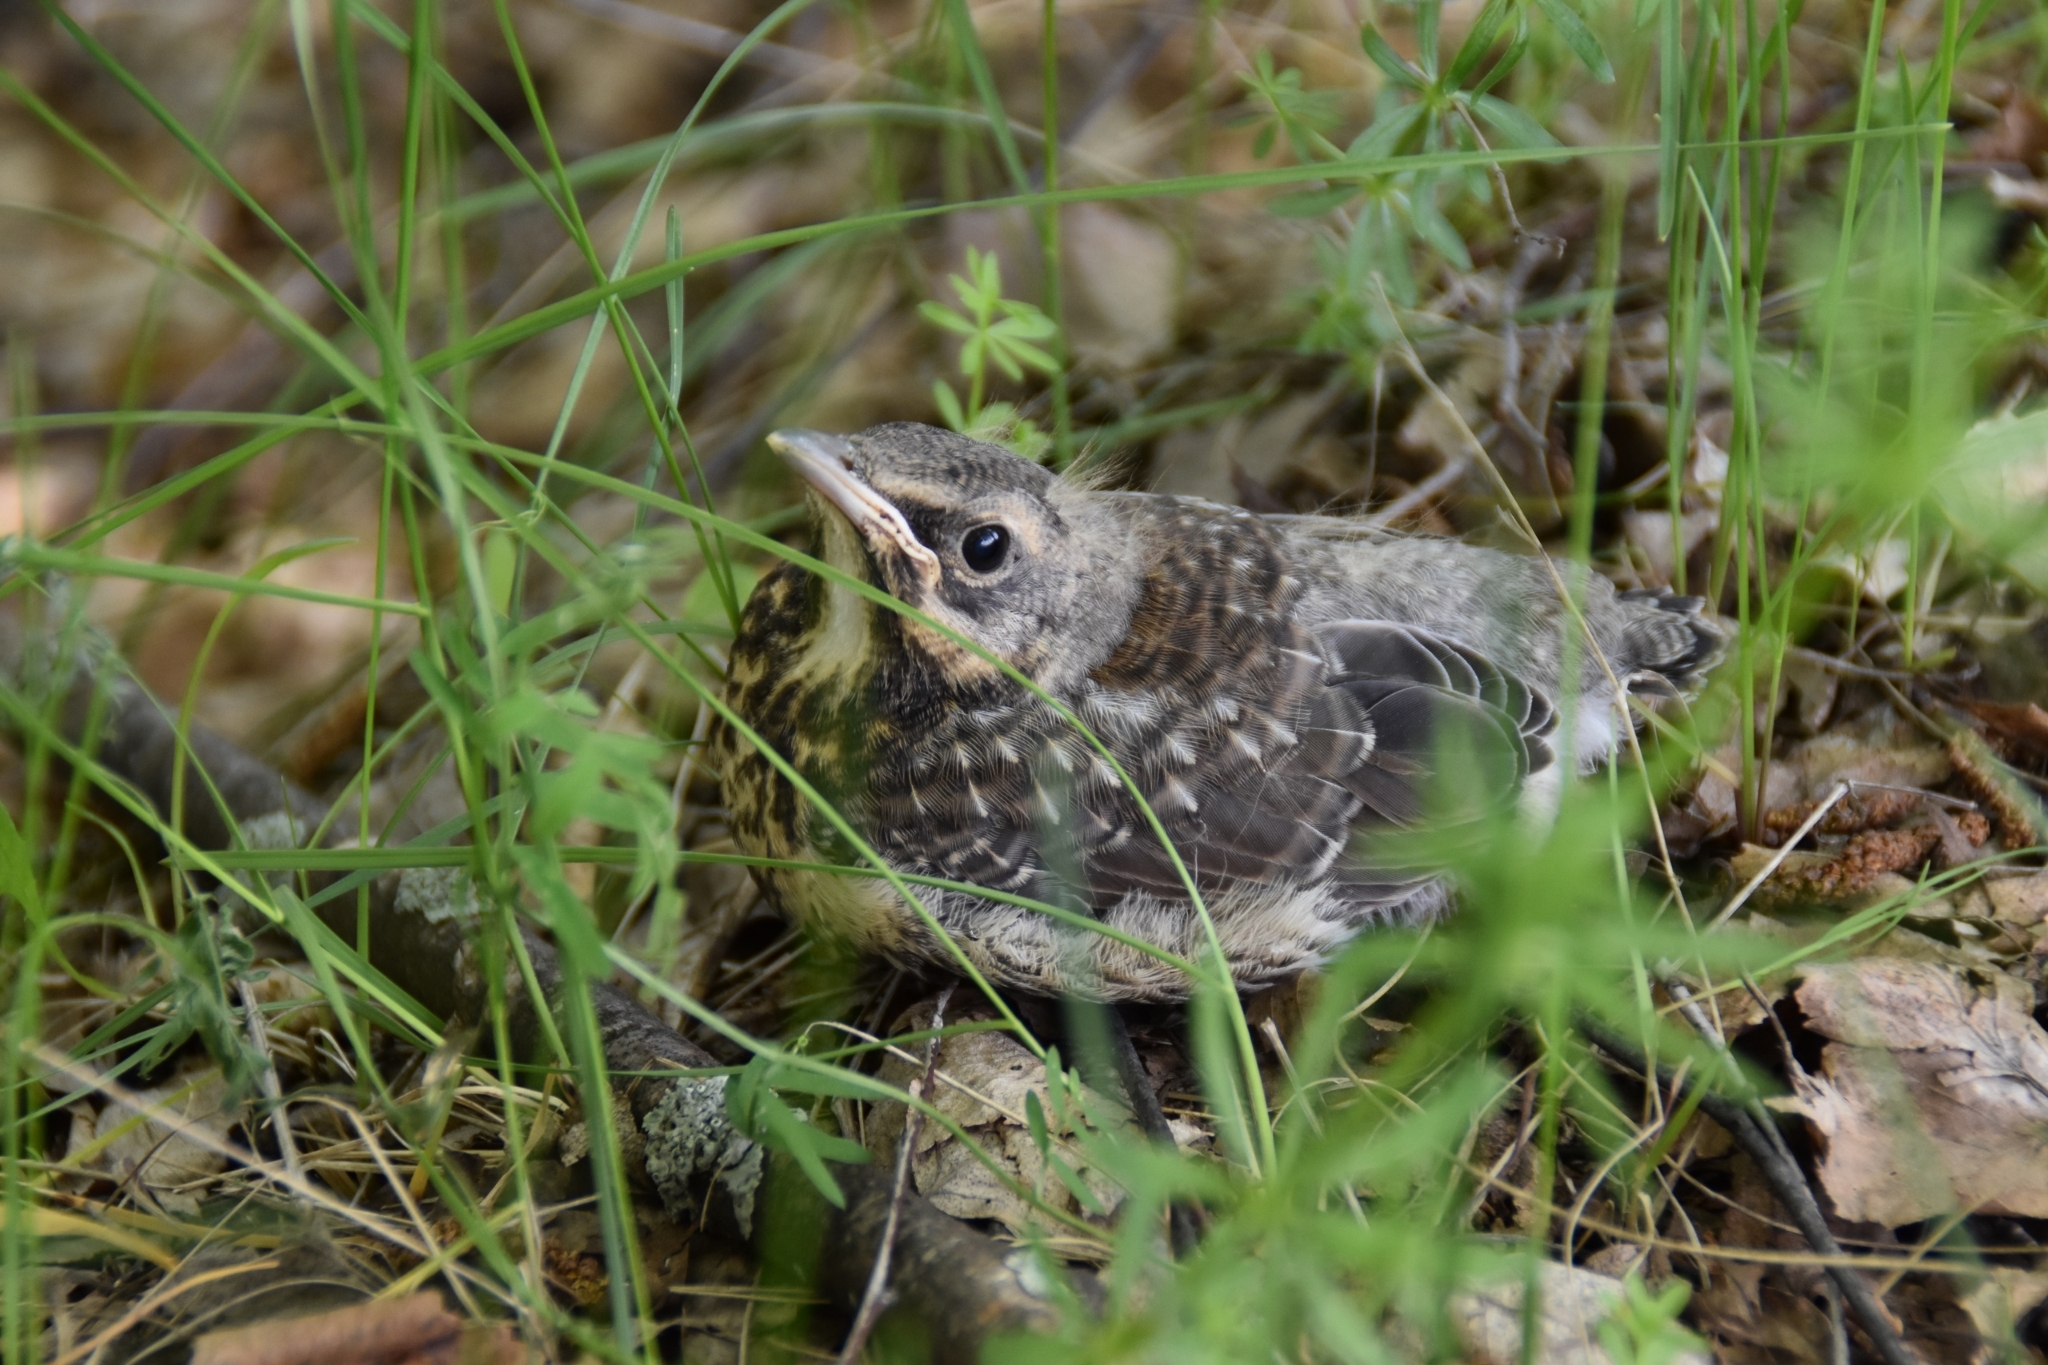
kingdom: Animalia
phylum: Chordata
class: Aves
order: Passeriformes
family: Turdidae
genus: Turdus
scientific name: Turdus pilaris
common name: Fieldfare
